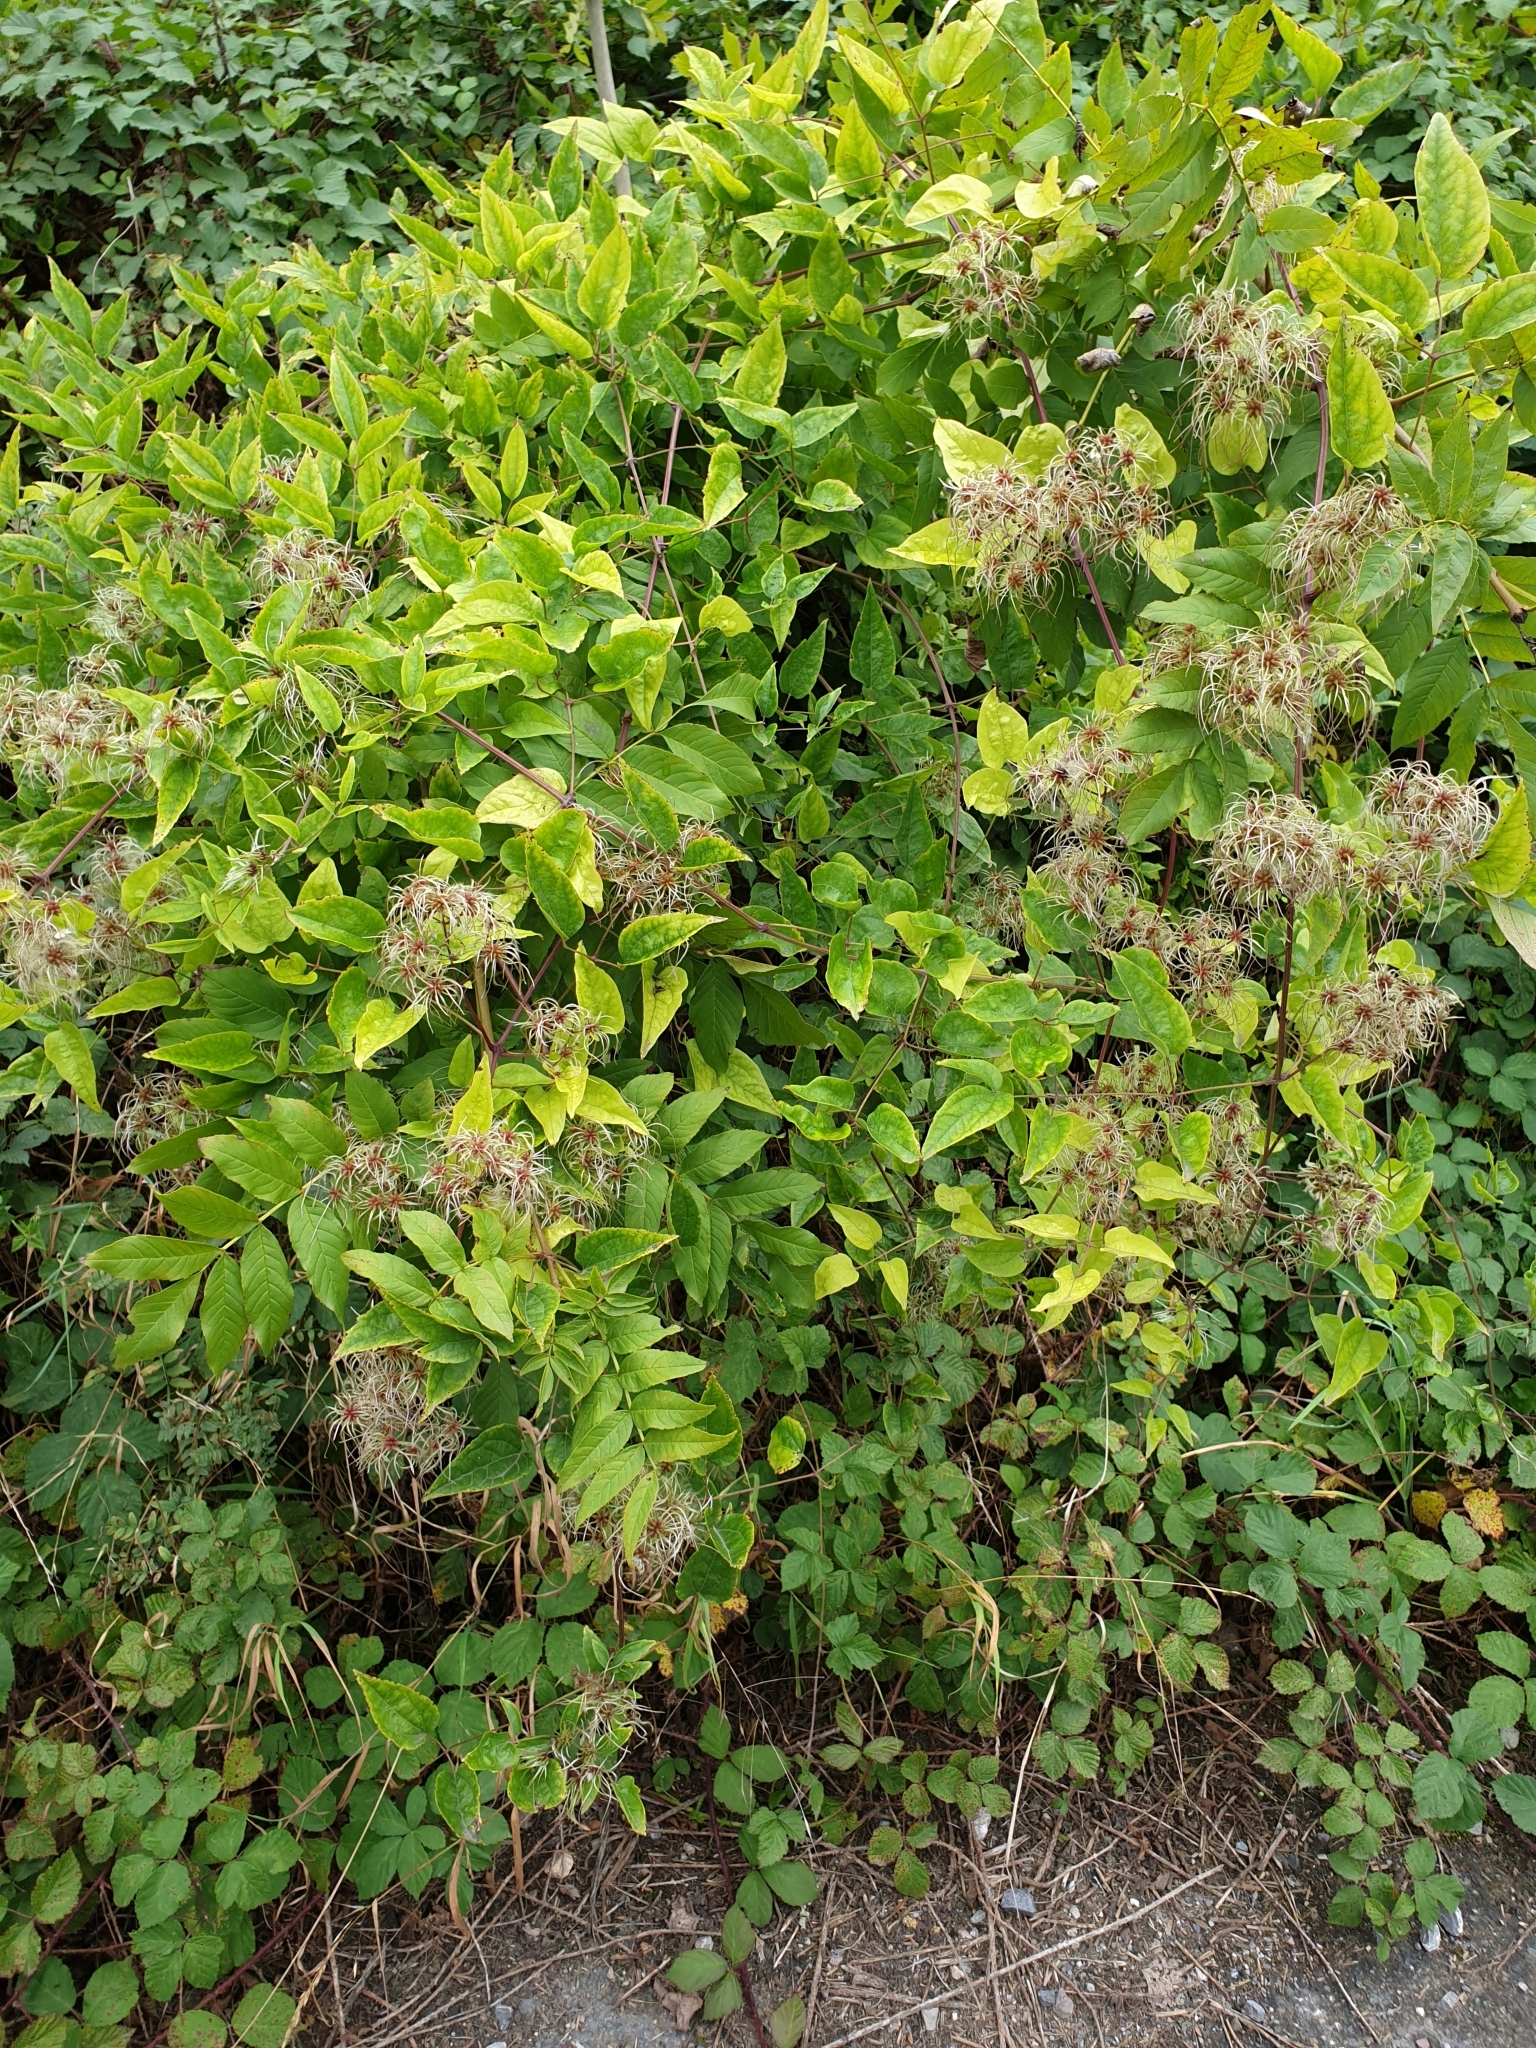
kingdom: Plantae
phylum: Tracheophyta
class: Magnoliopsida
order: Ranunculales
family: Ranunculaceae
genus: Clematis
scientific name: Clematis vitalba
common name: Evergreen clematis
